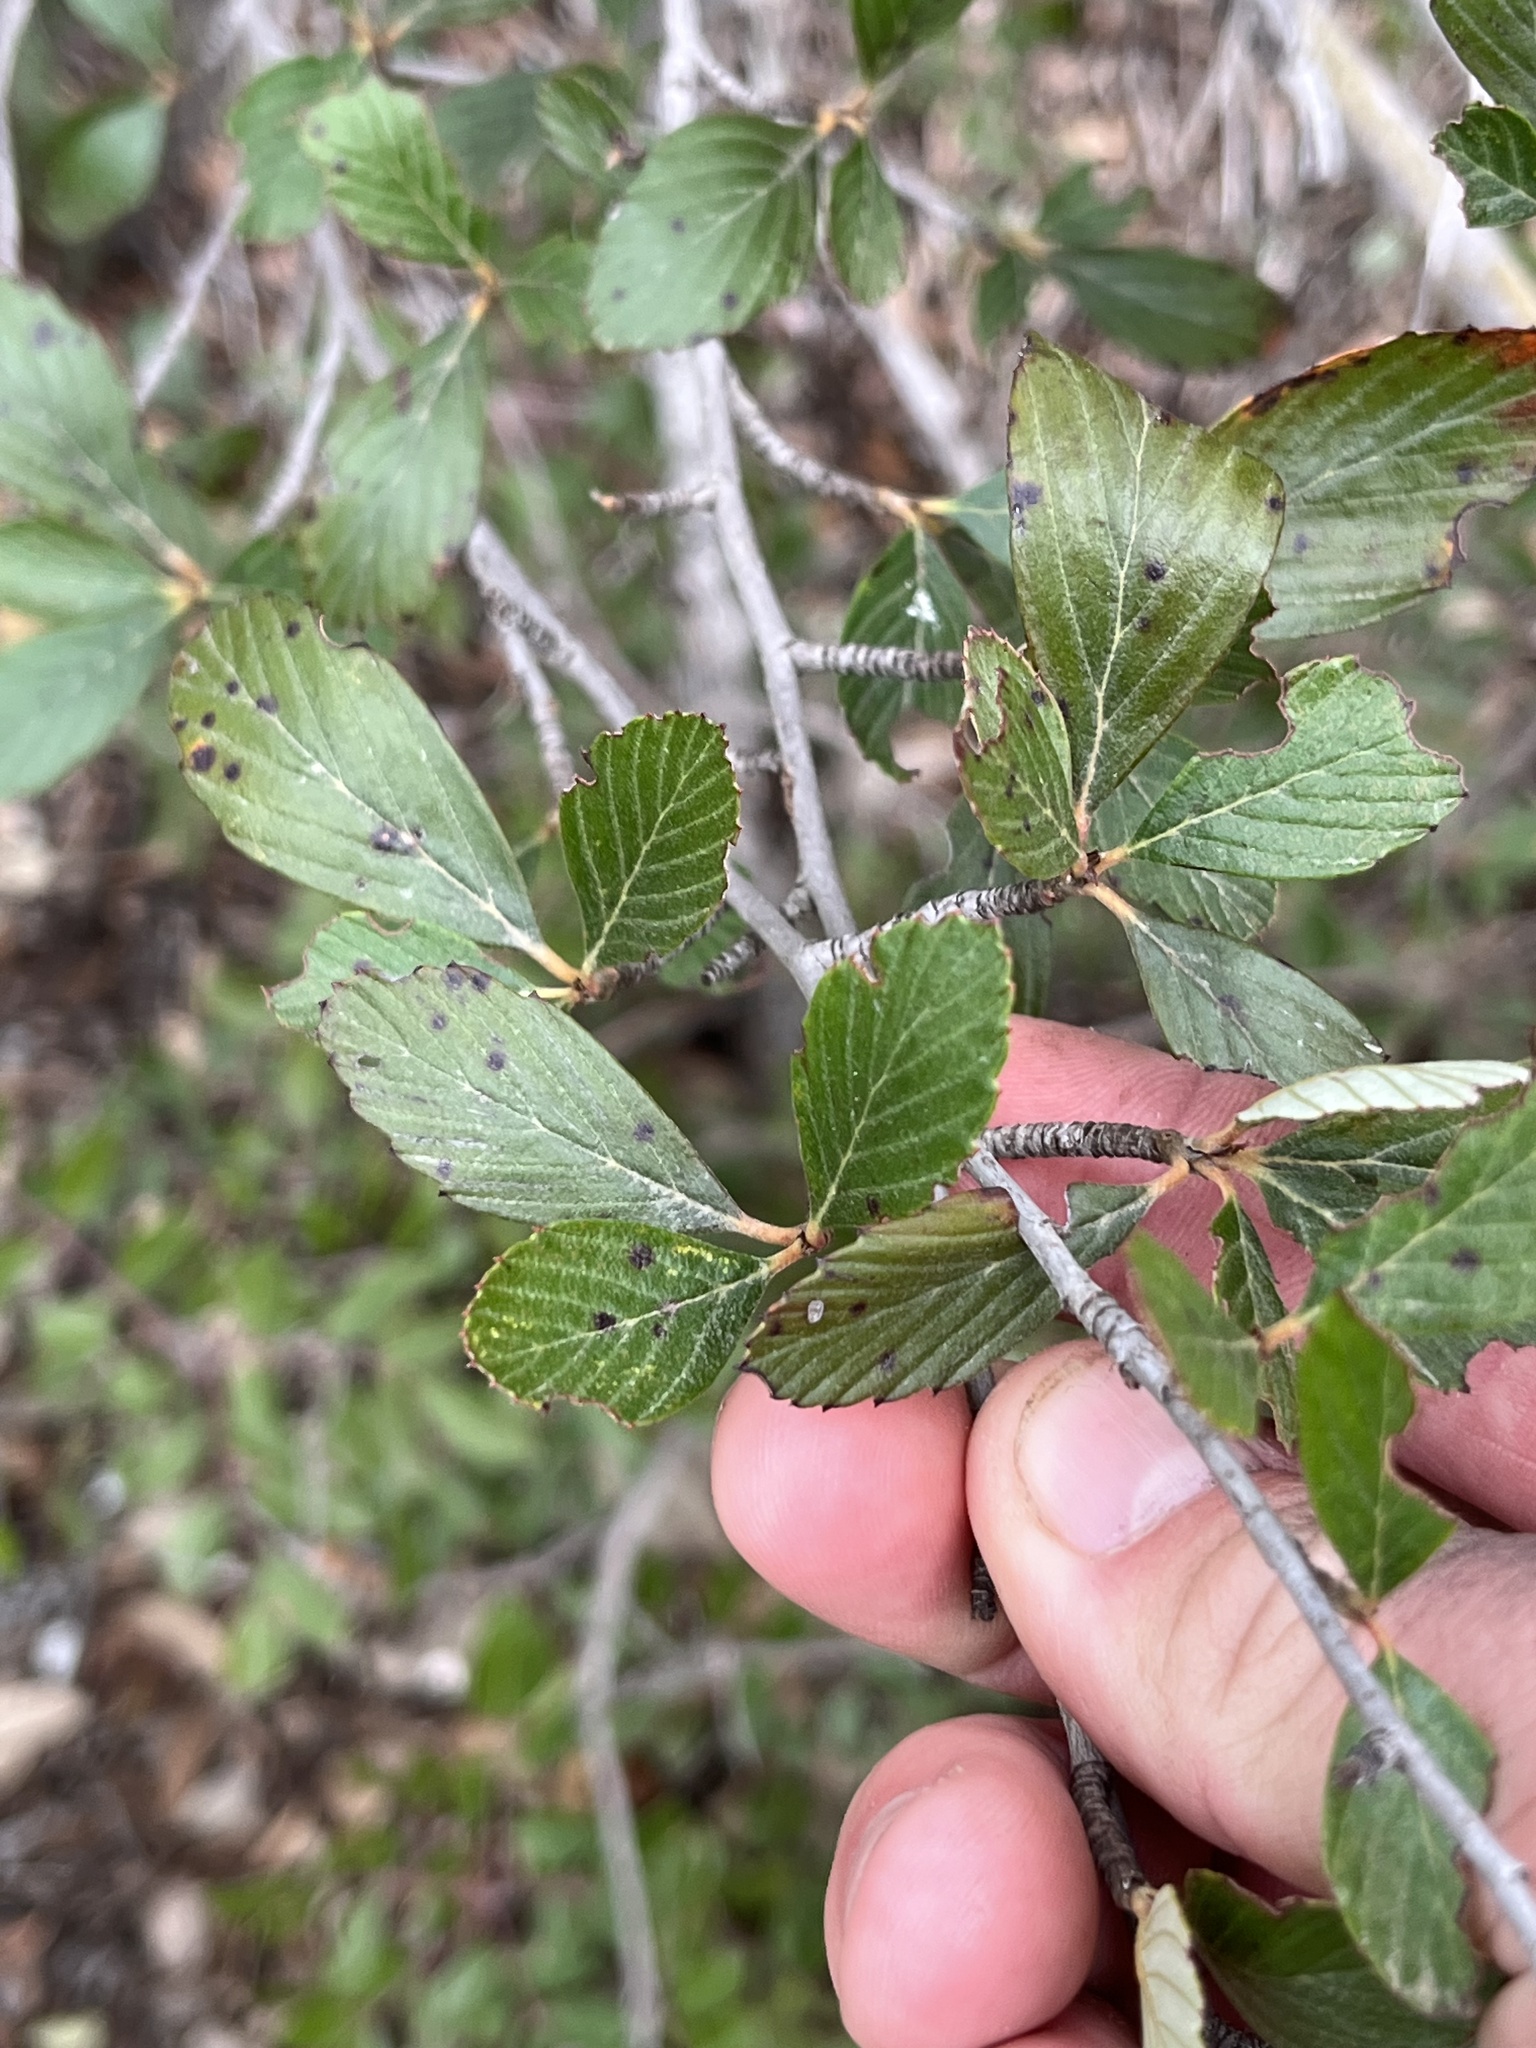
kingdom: Plantae
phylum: Tracheophyta
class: Magnoliopsida
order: Rosales
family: Rosaceae
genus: Cercocarpus
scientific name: Cercocarpus montanus
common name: Alder-leaf cercocarpus
